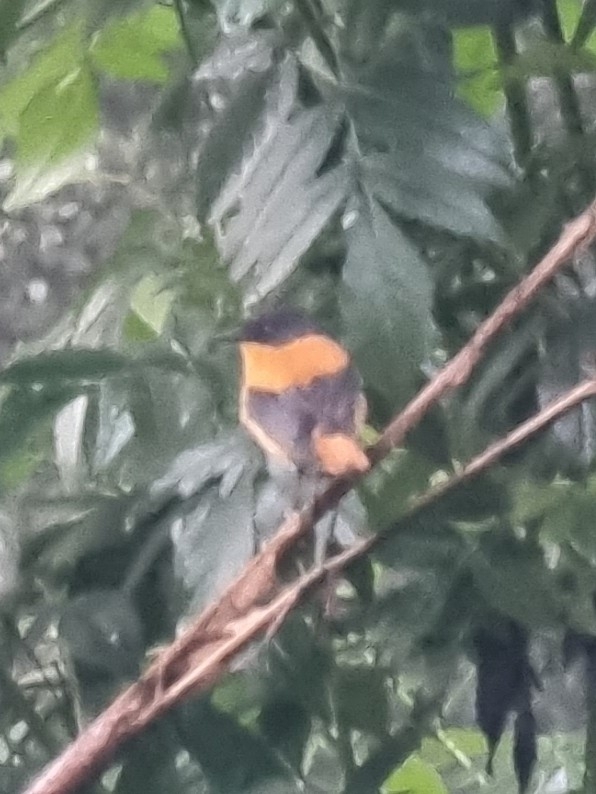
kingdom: Animalia
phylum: Chordata
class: Aves
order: Passeriformes
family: Muscicapidae
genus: Ficedula
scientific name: Ficedula nigrorufa
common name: Black-and-orange flycatcher
